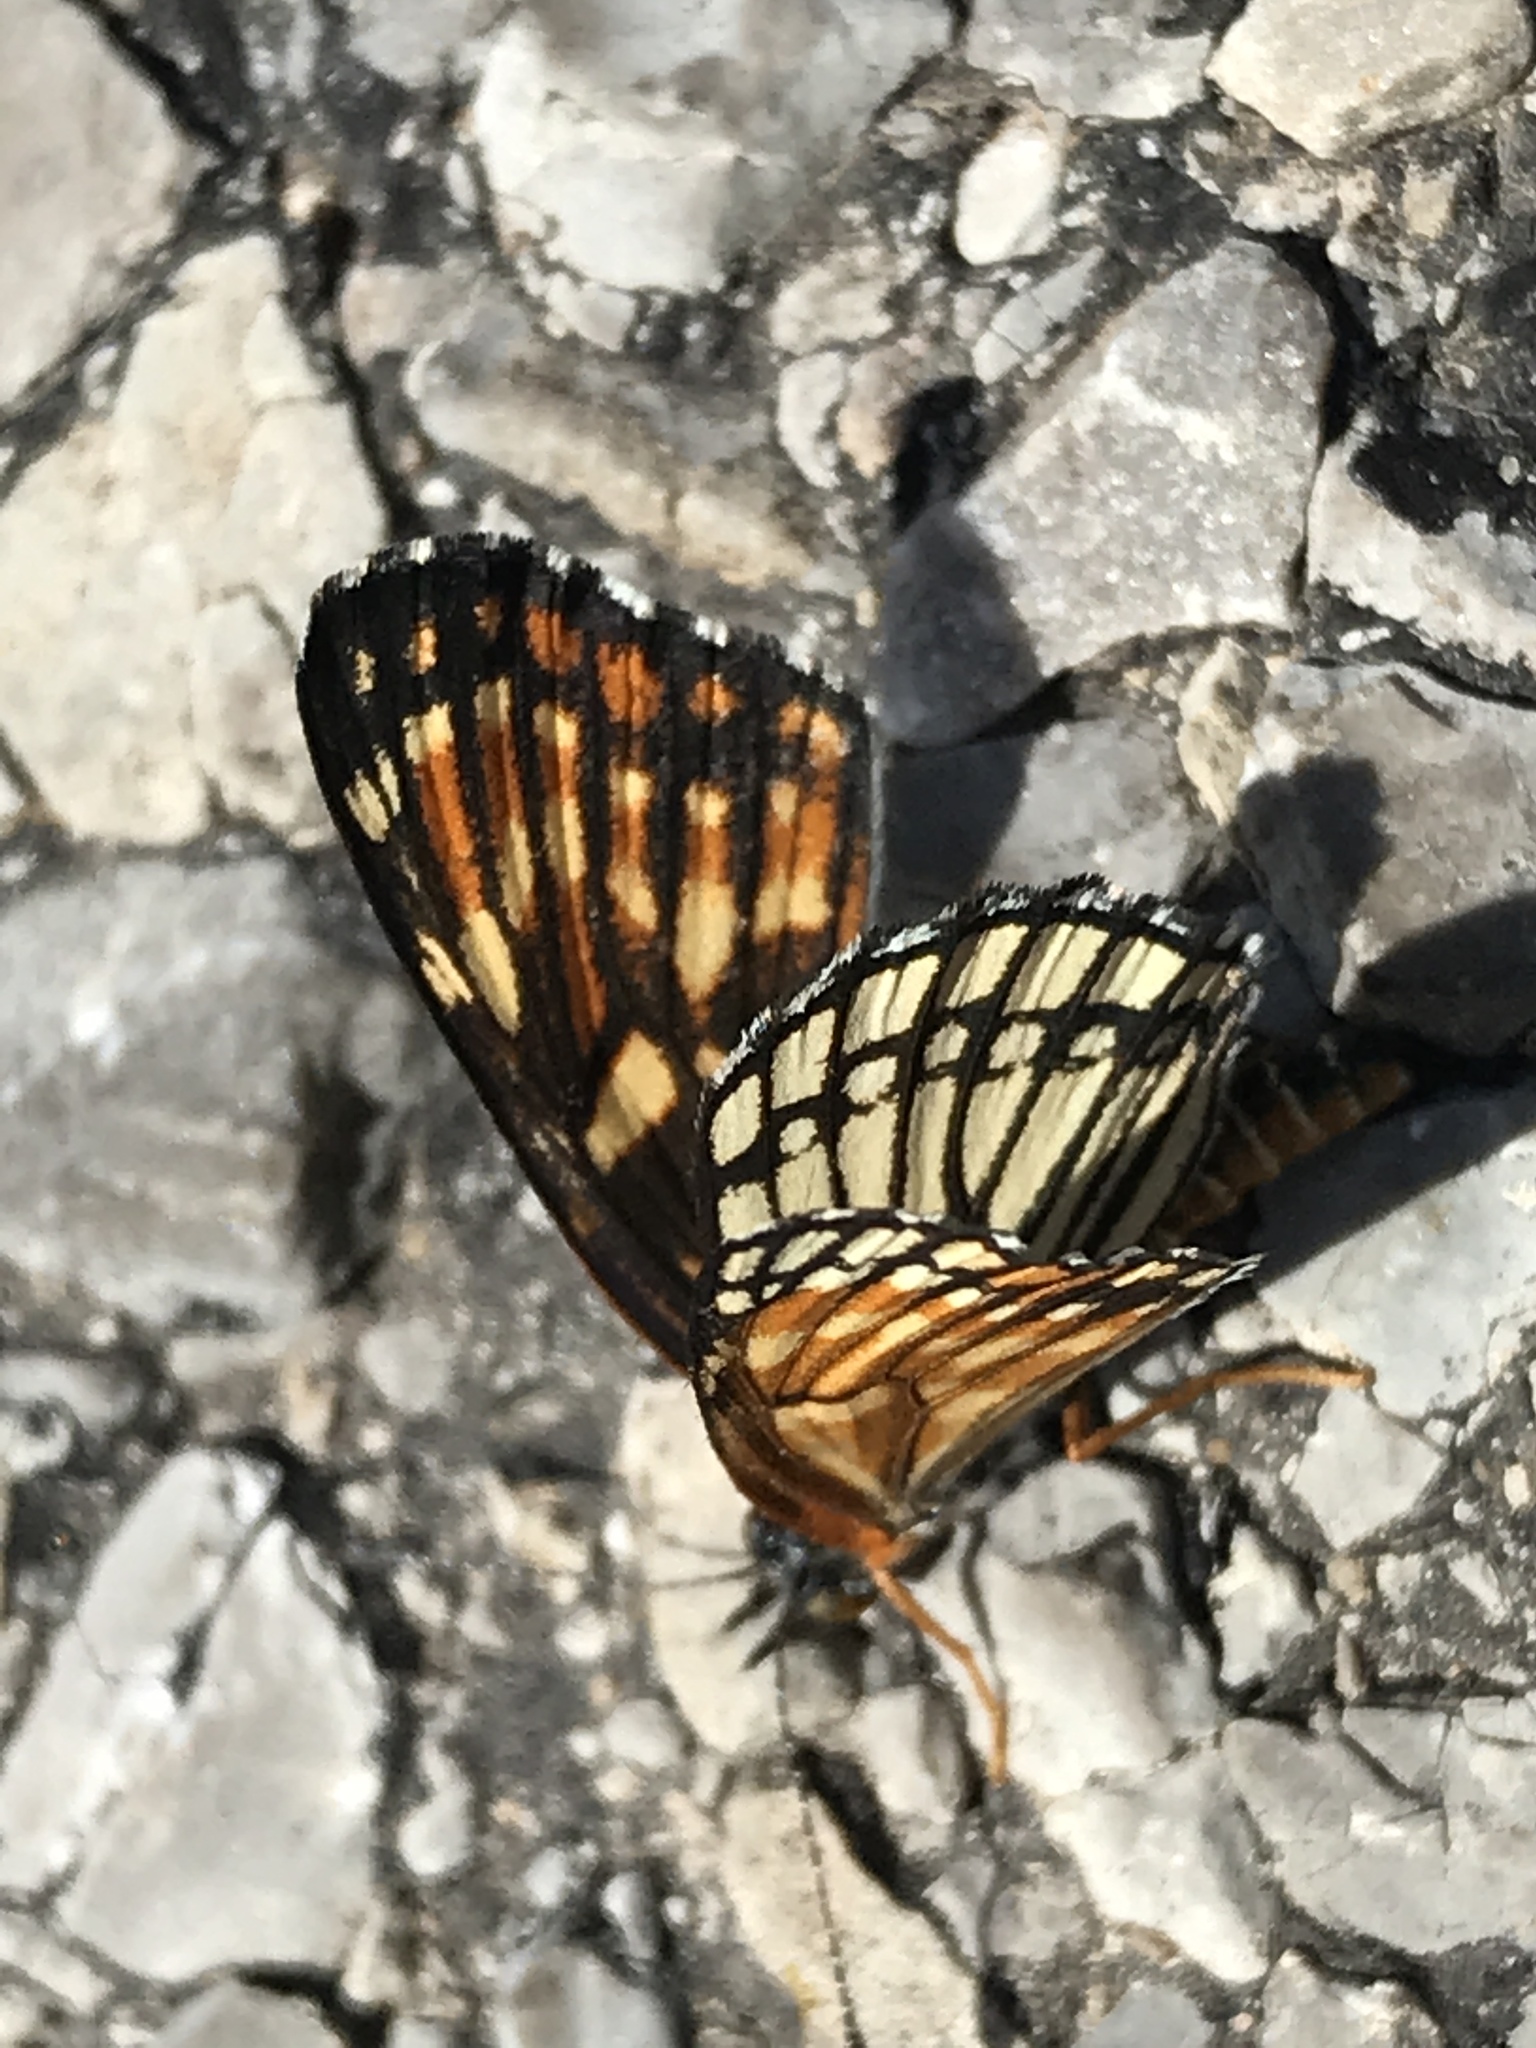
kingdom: Animalia
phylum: Arthropoda
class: Insecta
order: Lepidoptera
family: Nymphalidae
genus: Thessalia
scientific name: Thessalia leanira
